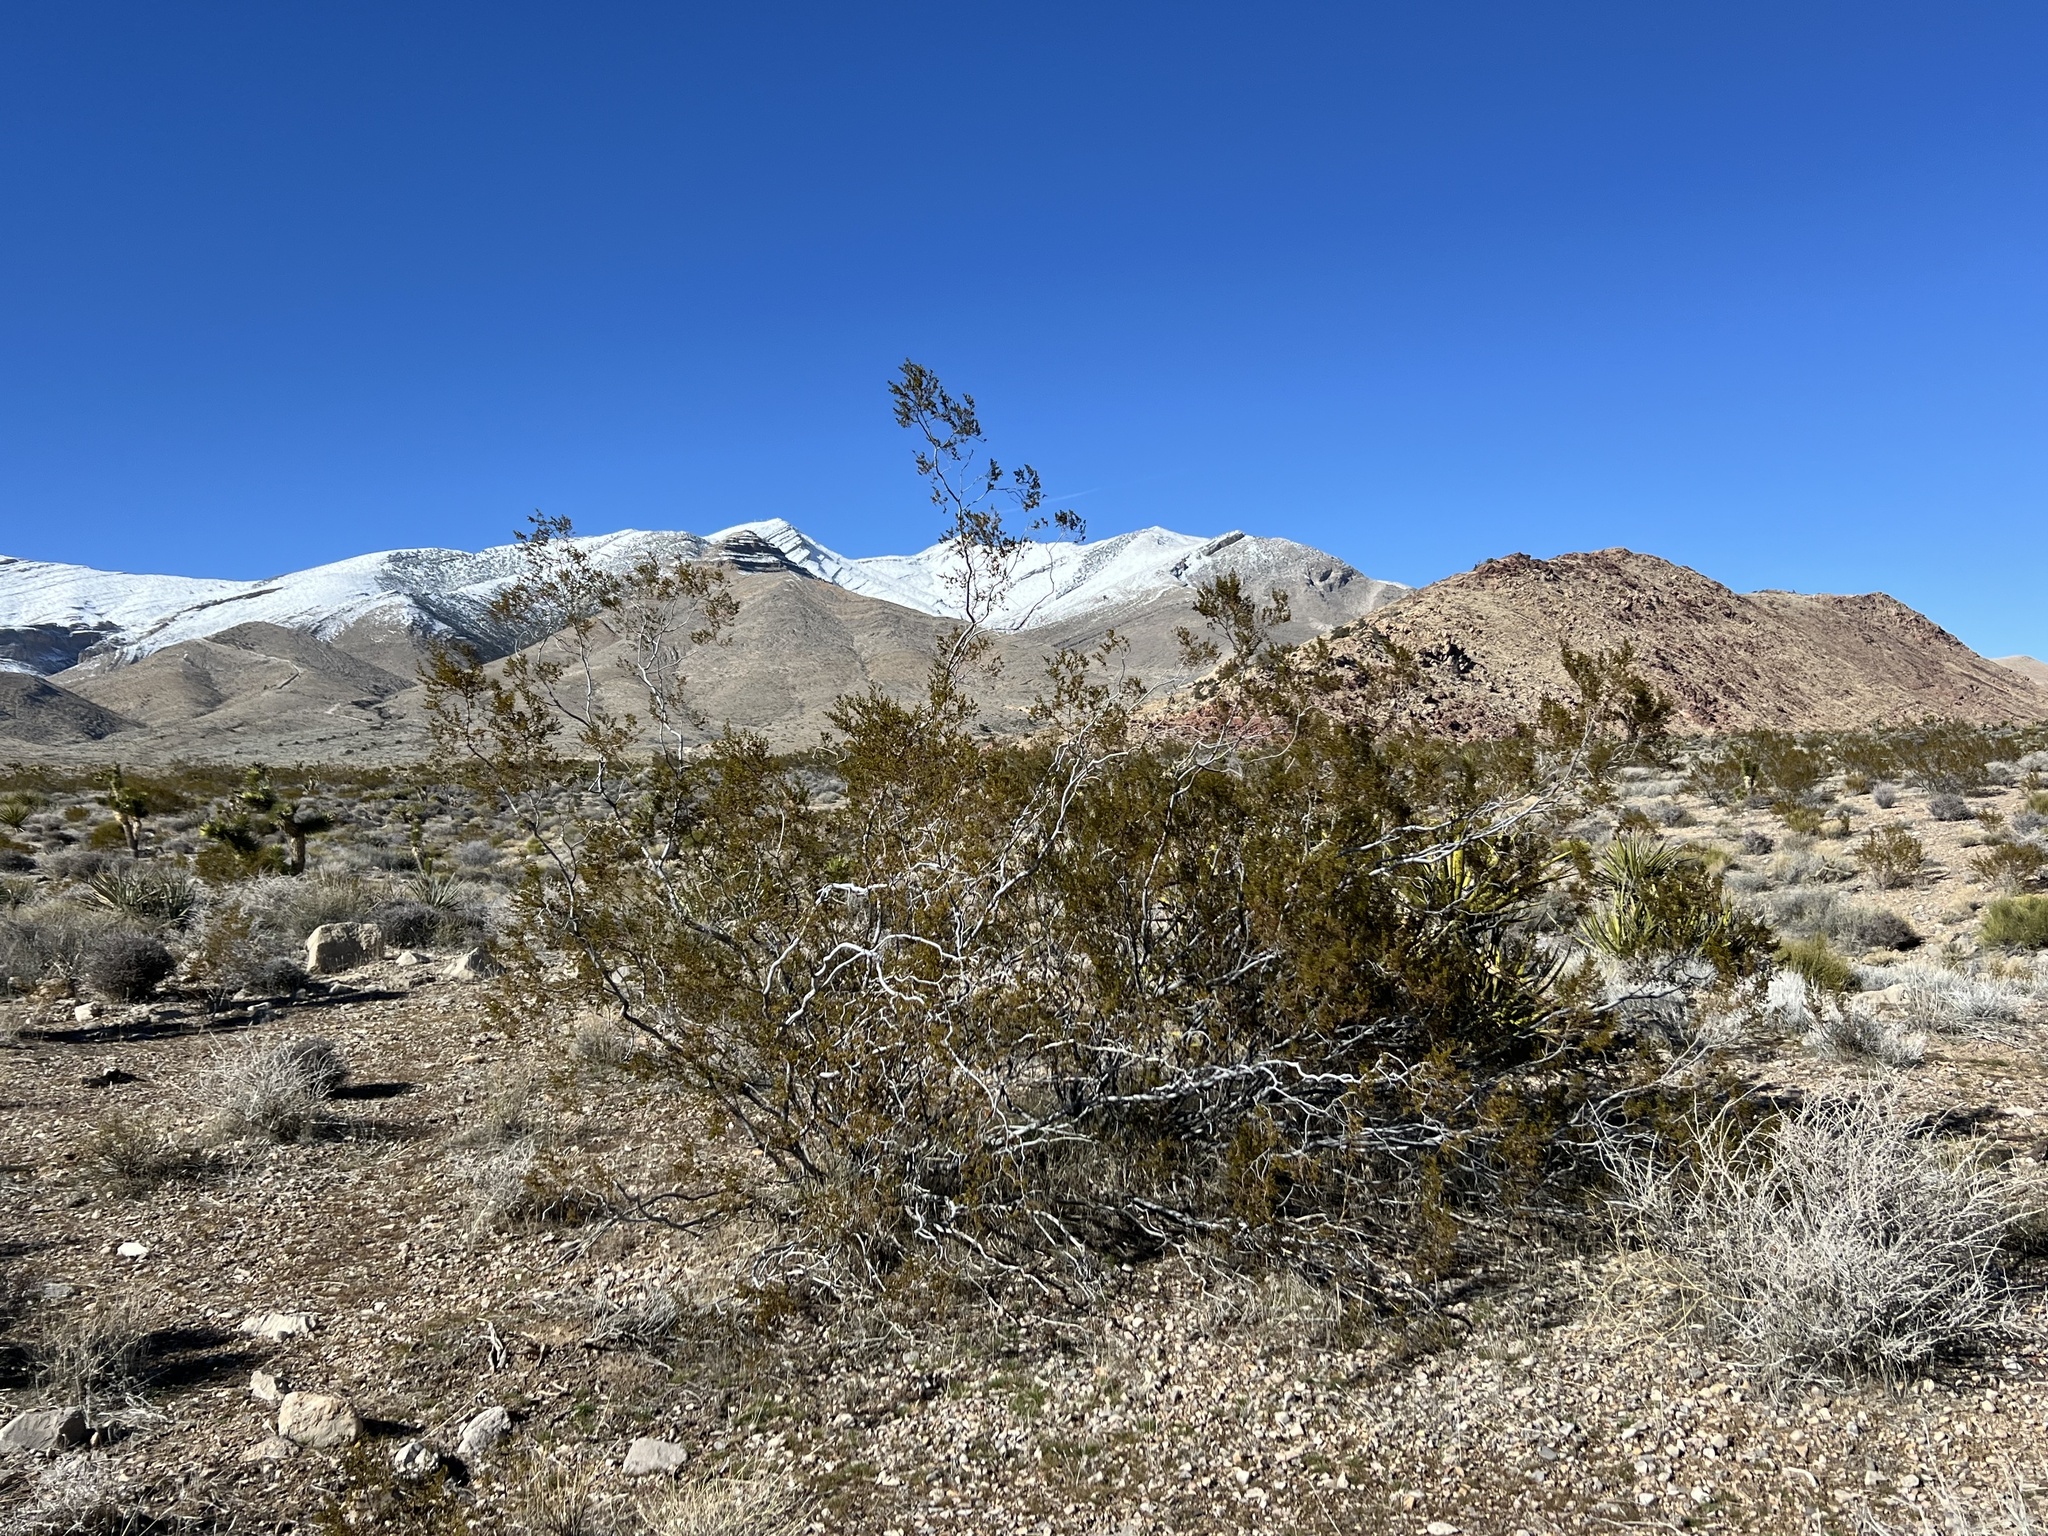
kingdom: Plantae
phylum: Tracheophyta
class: Magnoliopsida
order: Zygophyllales
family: Zygophyllaceae
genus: Larrea
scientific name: Larrea tridentata
